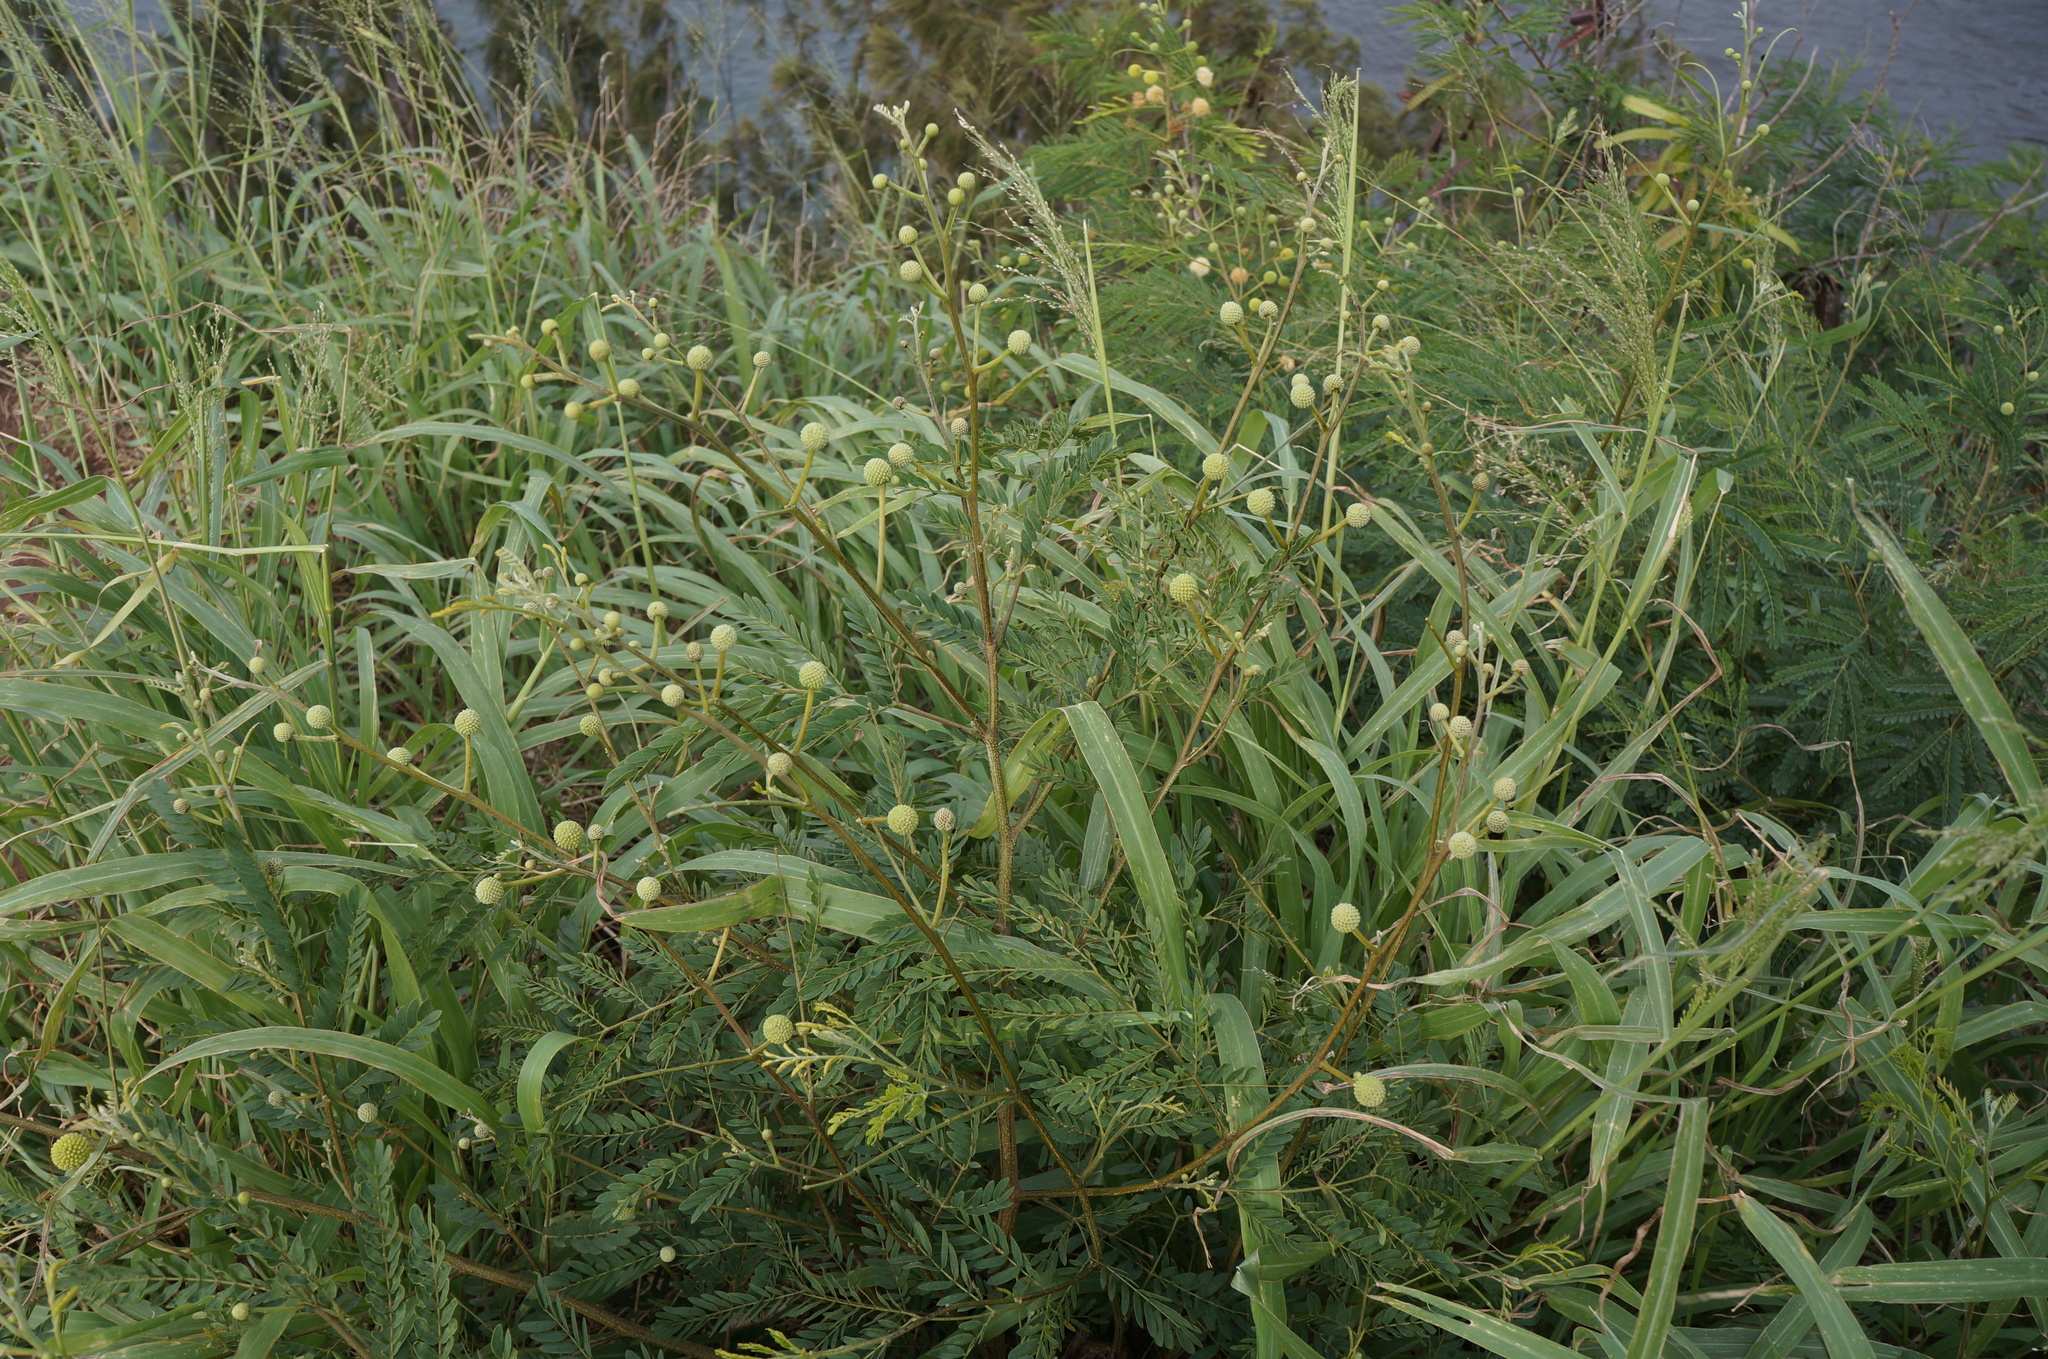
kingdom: Plantae
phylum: Tracheophyta
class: Magnoliopsida
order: Fabales
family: Fabaceae
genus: Leucaena
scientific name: Leucaena leucocephala
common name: White leadtree
